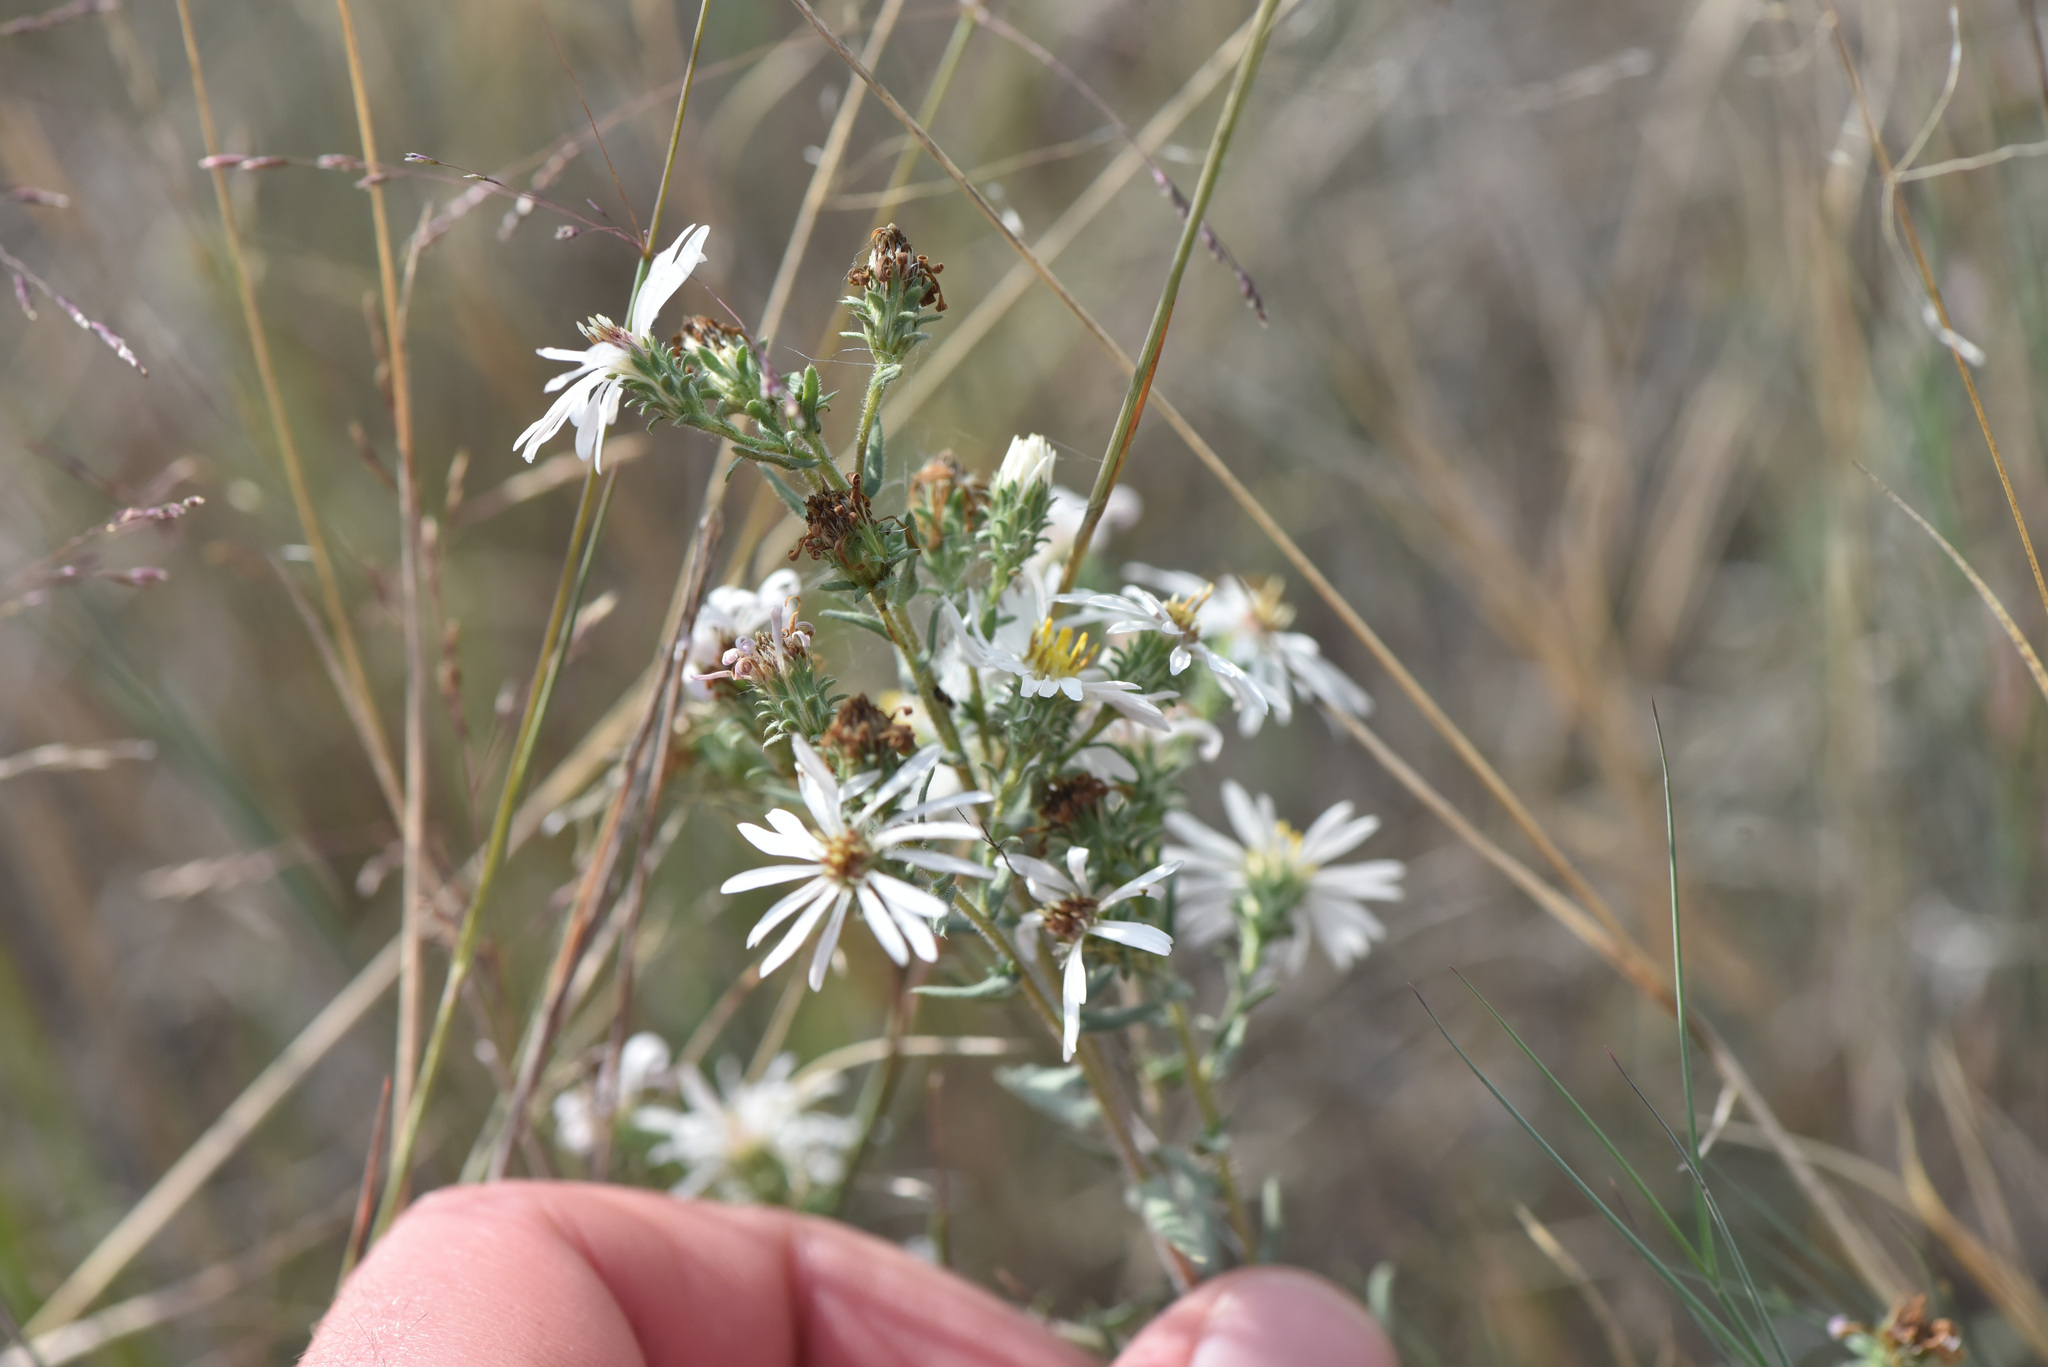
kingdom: Plantae
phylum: Tracheophyta
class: Magnoliopsida
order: Asterales
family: Asteraceae
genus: Symphyotrichum
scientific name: Symphyotrichum falcatum
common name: Creeping white prairie aster
